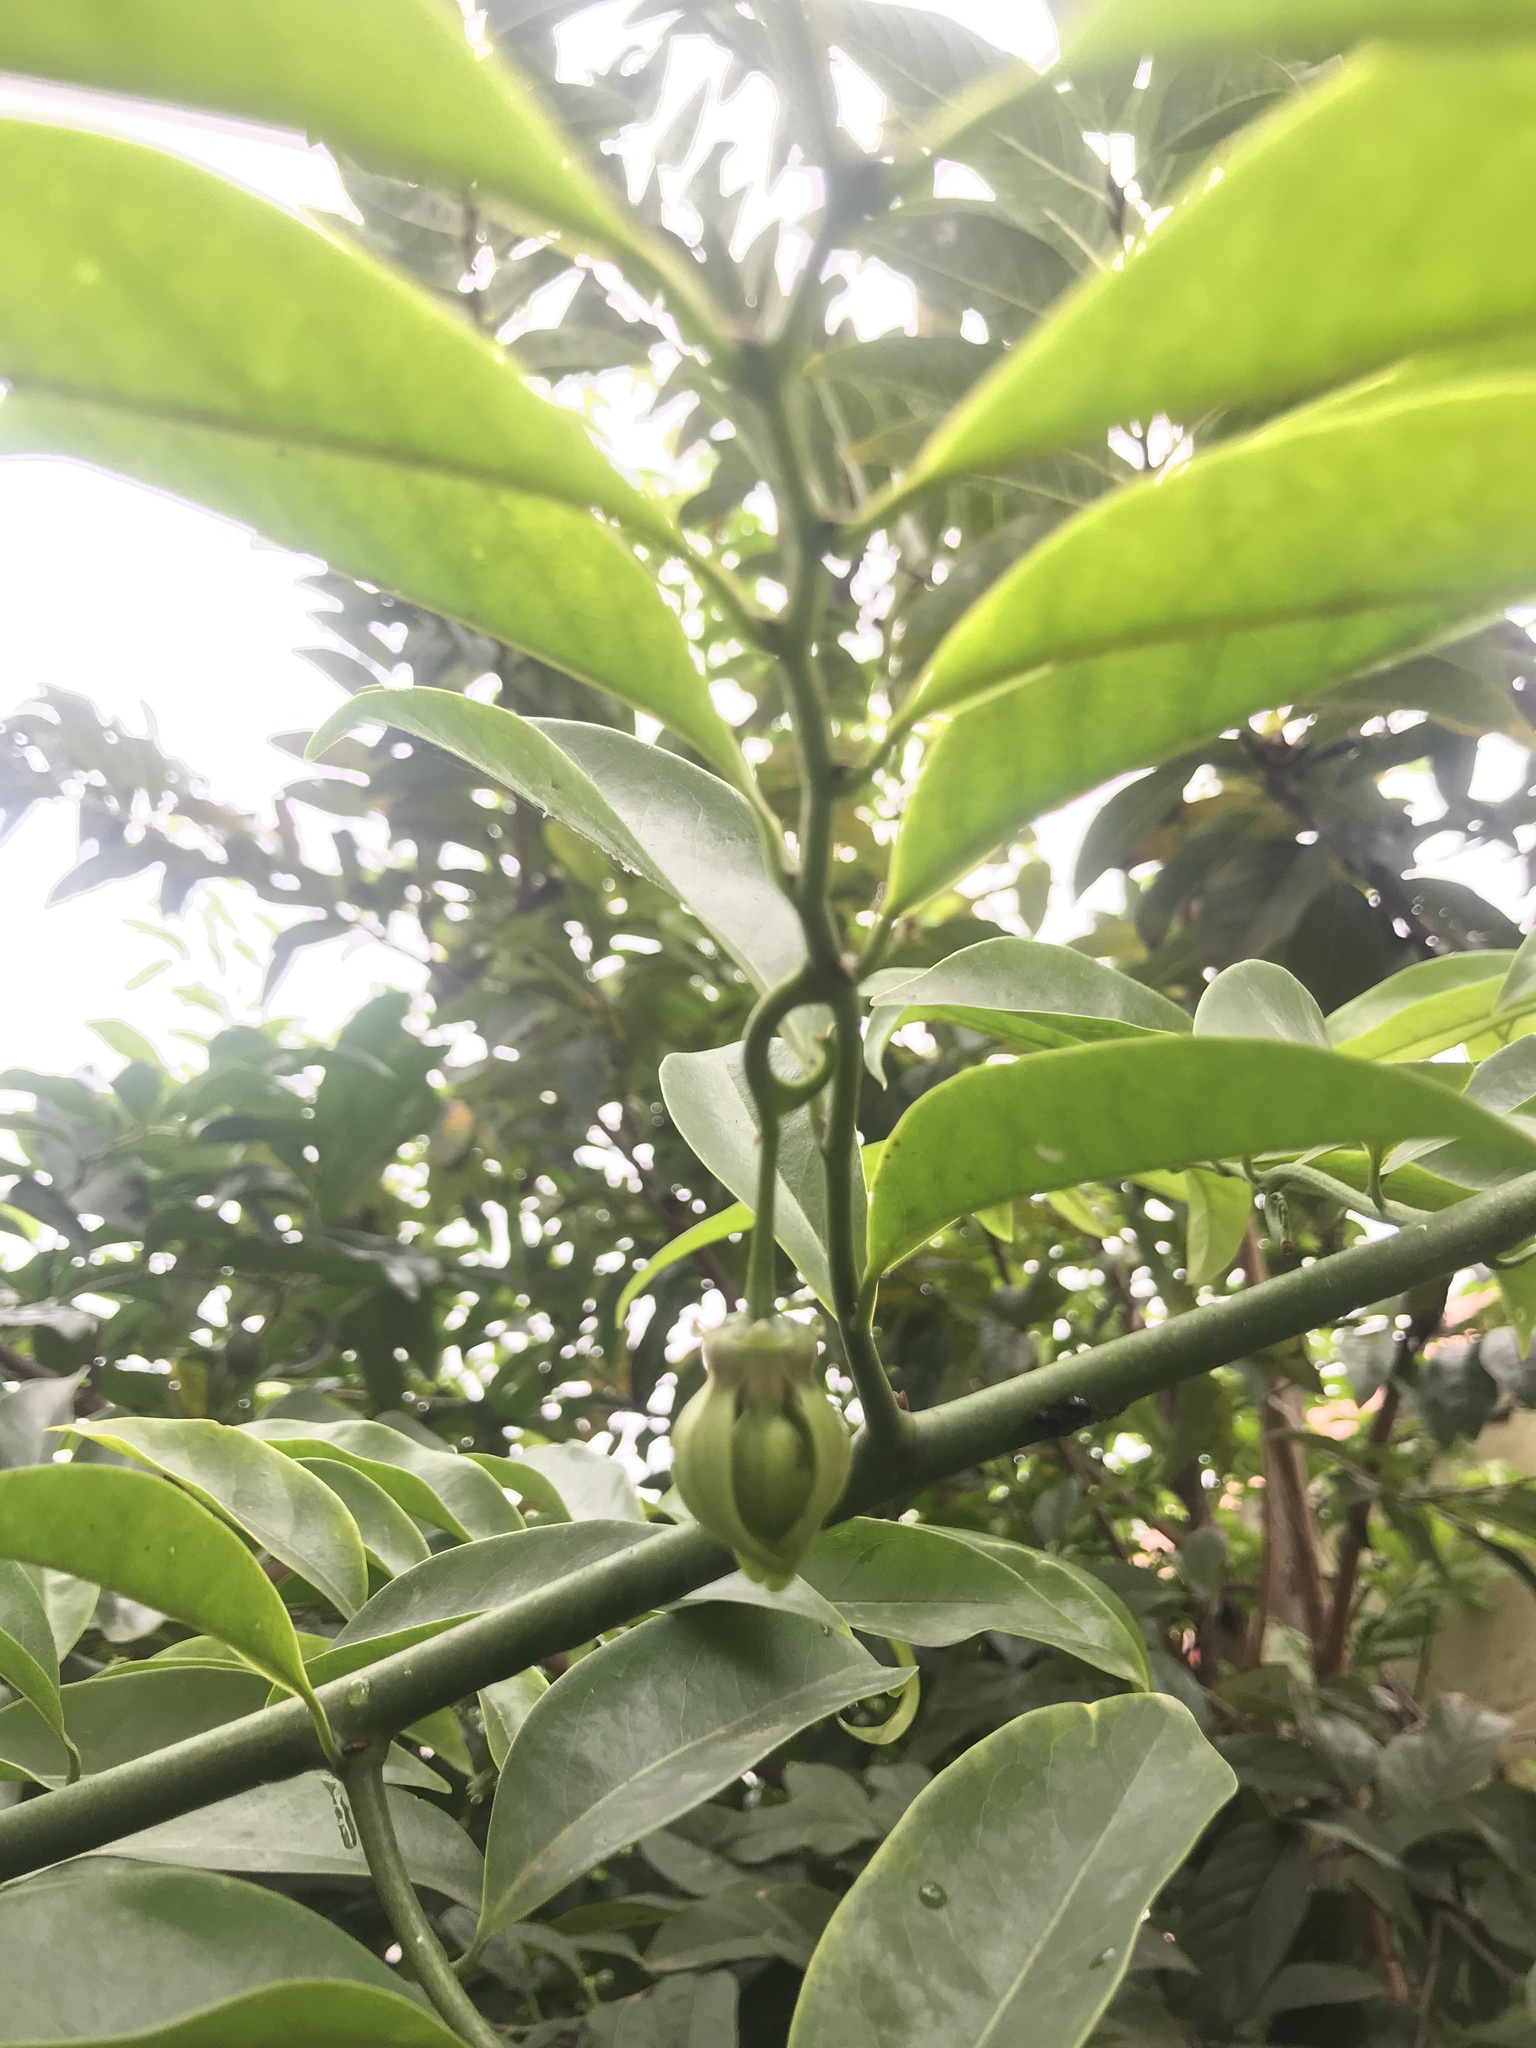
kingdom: Plantae
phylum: Tracheophyta
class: Magnoliopsida
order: Magnoliales
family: Annonaceae
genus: Artabotrys
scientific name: Artabotrys hexapetalus
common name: Climbing ilang-ilang
